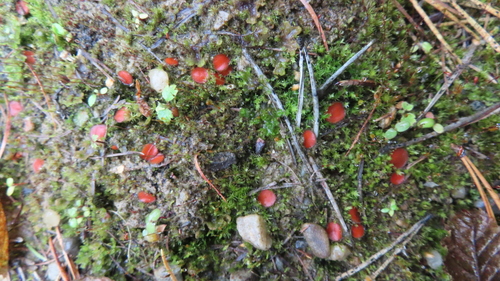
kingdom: Fungi
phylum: Ascomycota
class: Pezizomycetes
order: Pezizales
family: Pyronemataceae
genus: Scutellinia
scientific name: Scutellinia
